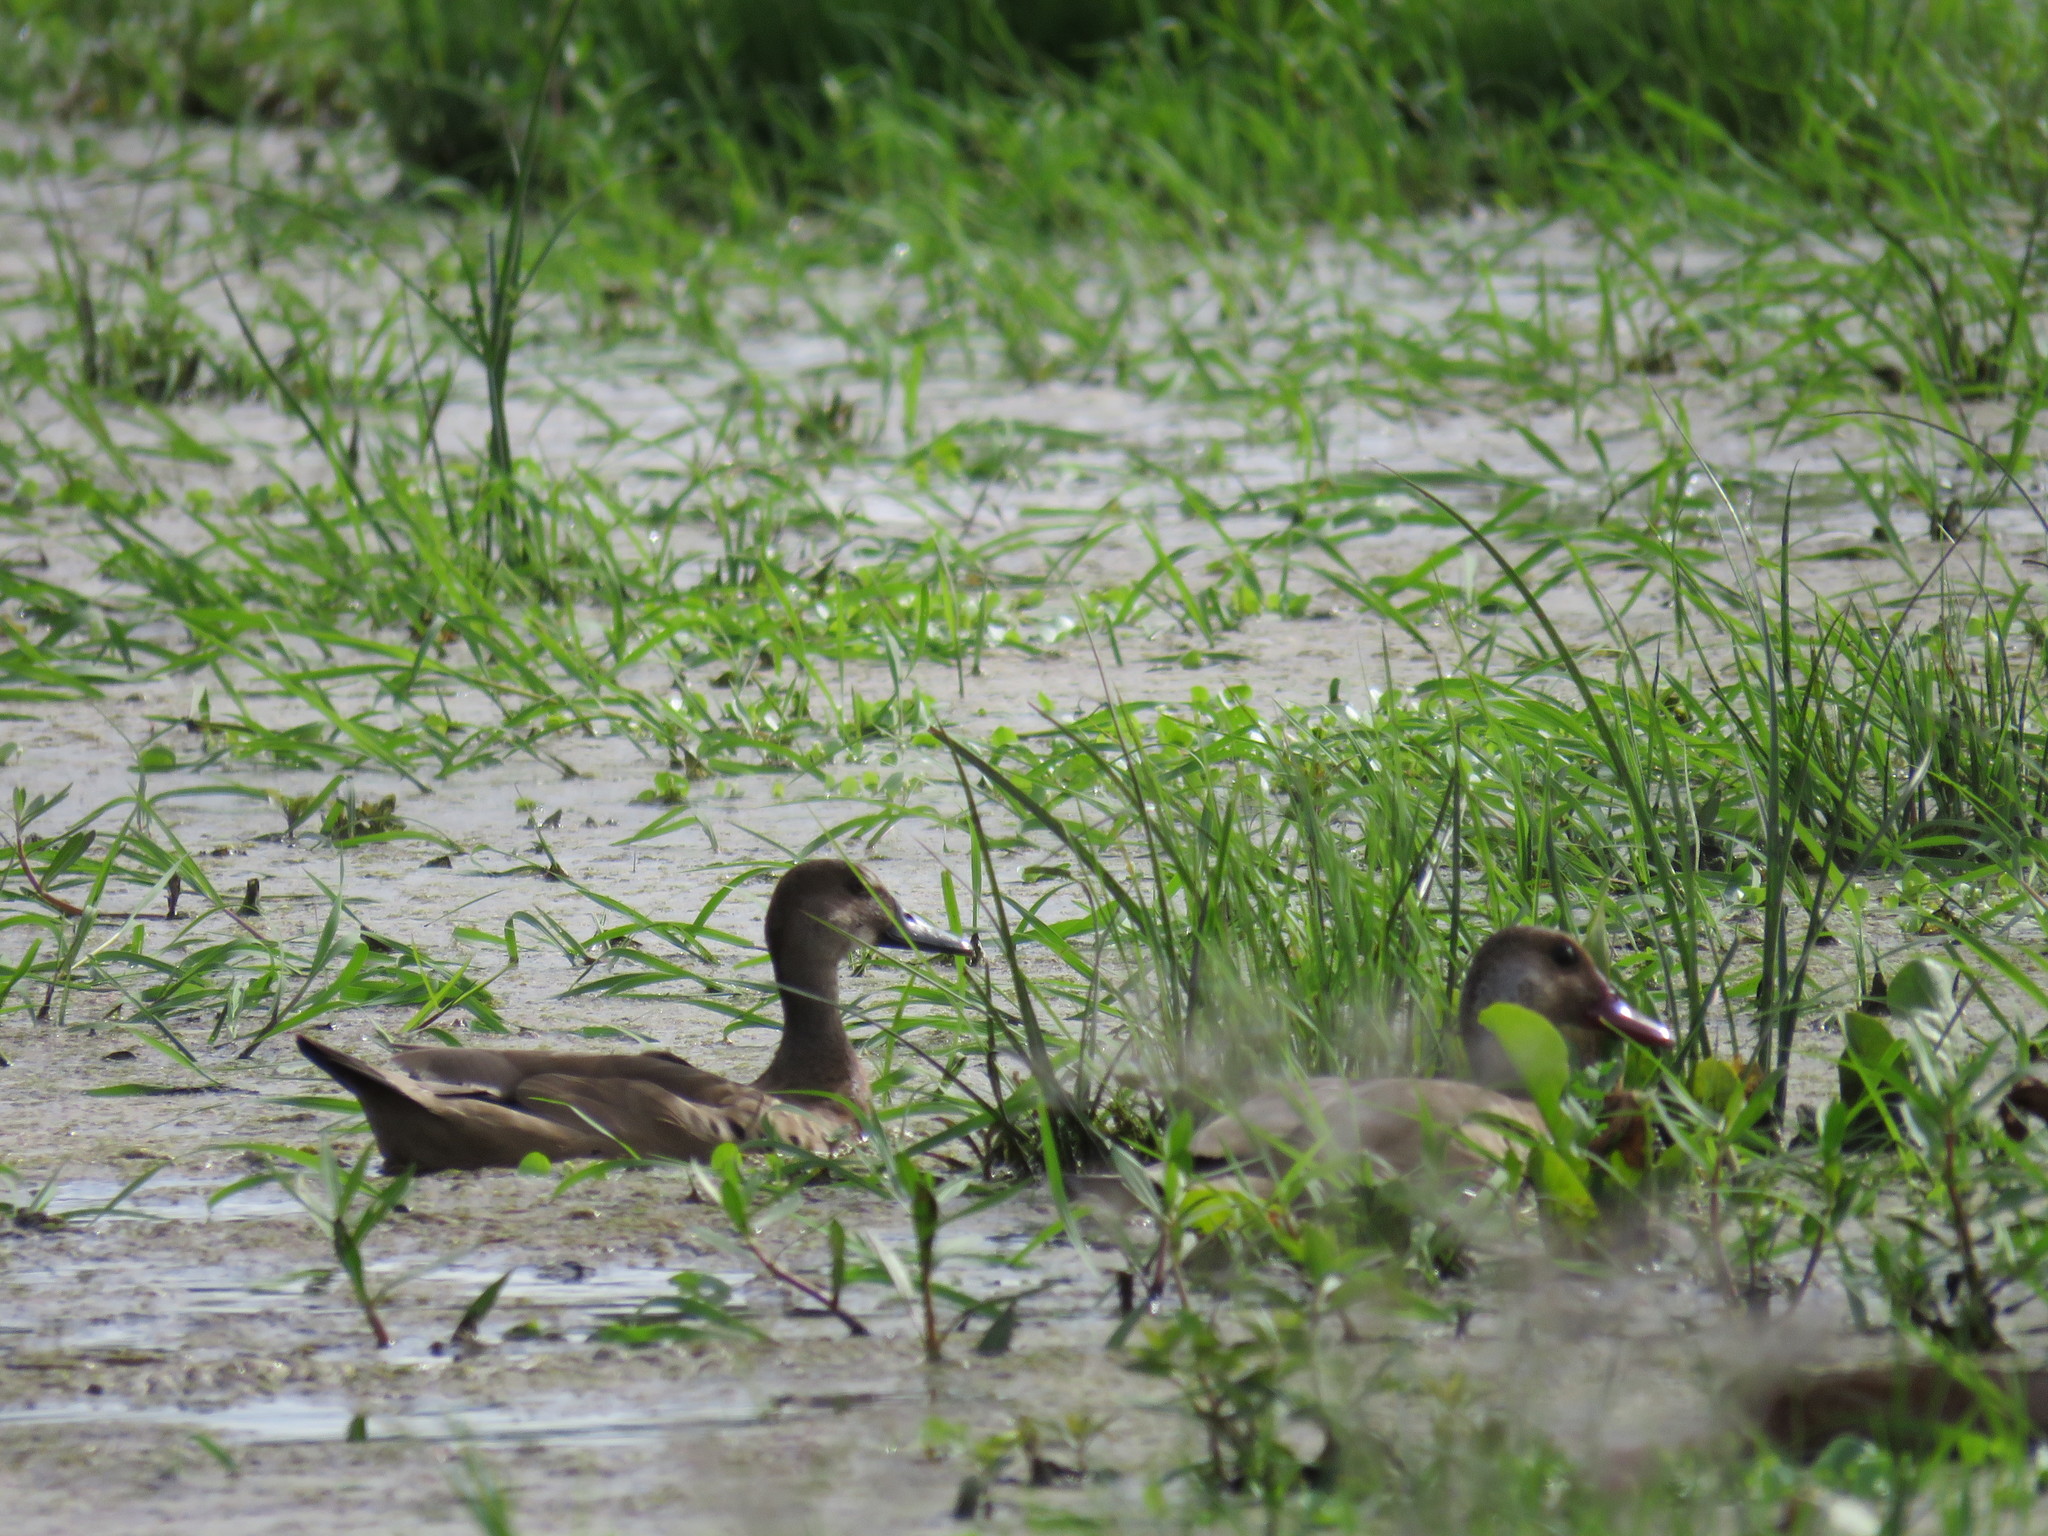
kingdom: Animalia
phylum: Chordata
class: Aves
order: Anseriformes
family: Anatidae
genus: Amazonetta
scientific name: Amazonetta brasiliensis
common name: Brazilian teal
